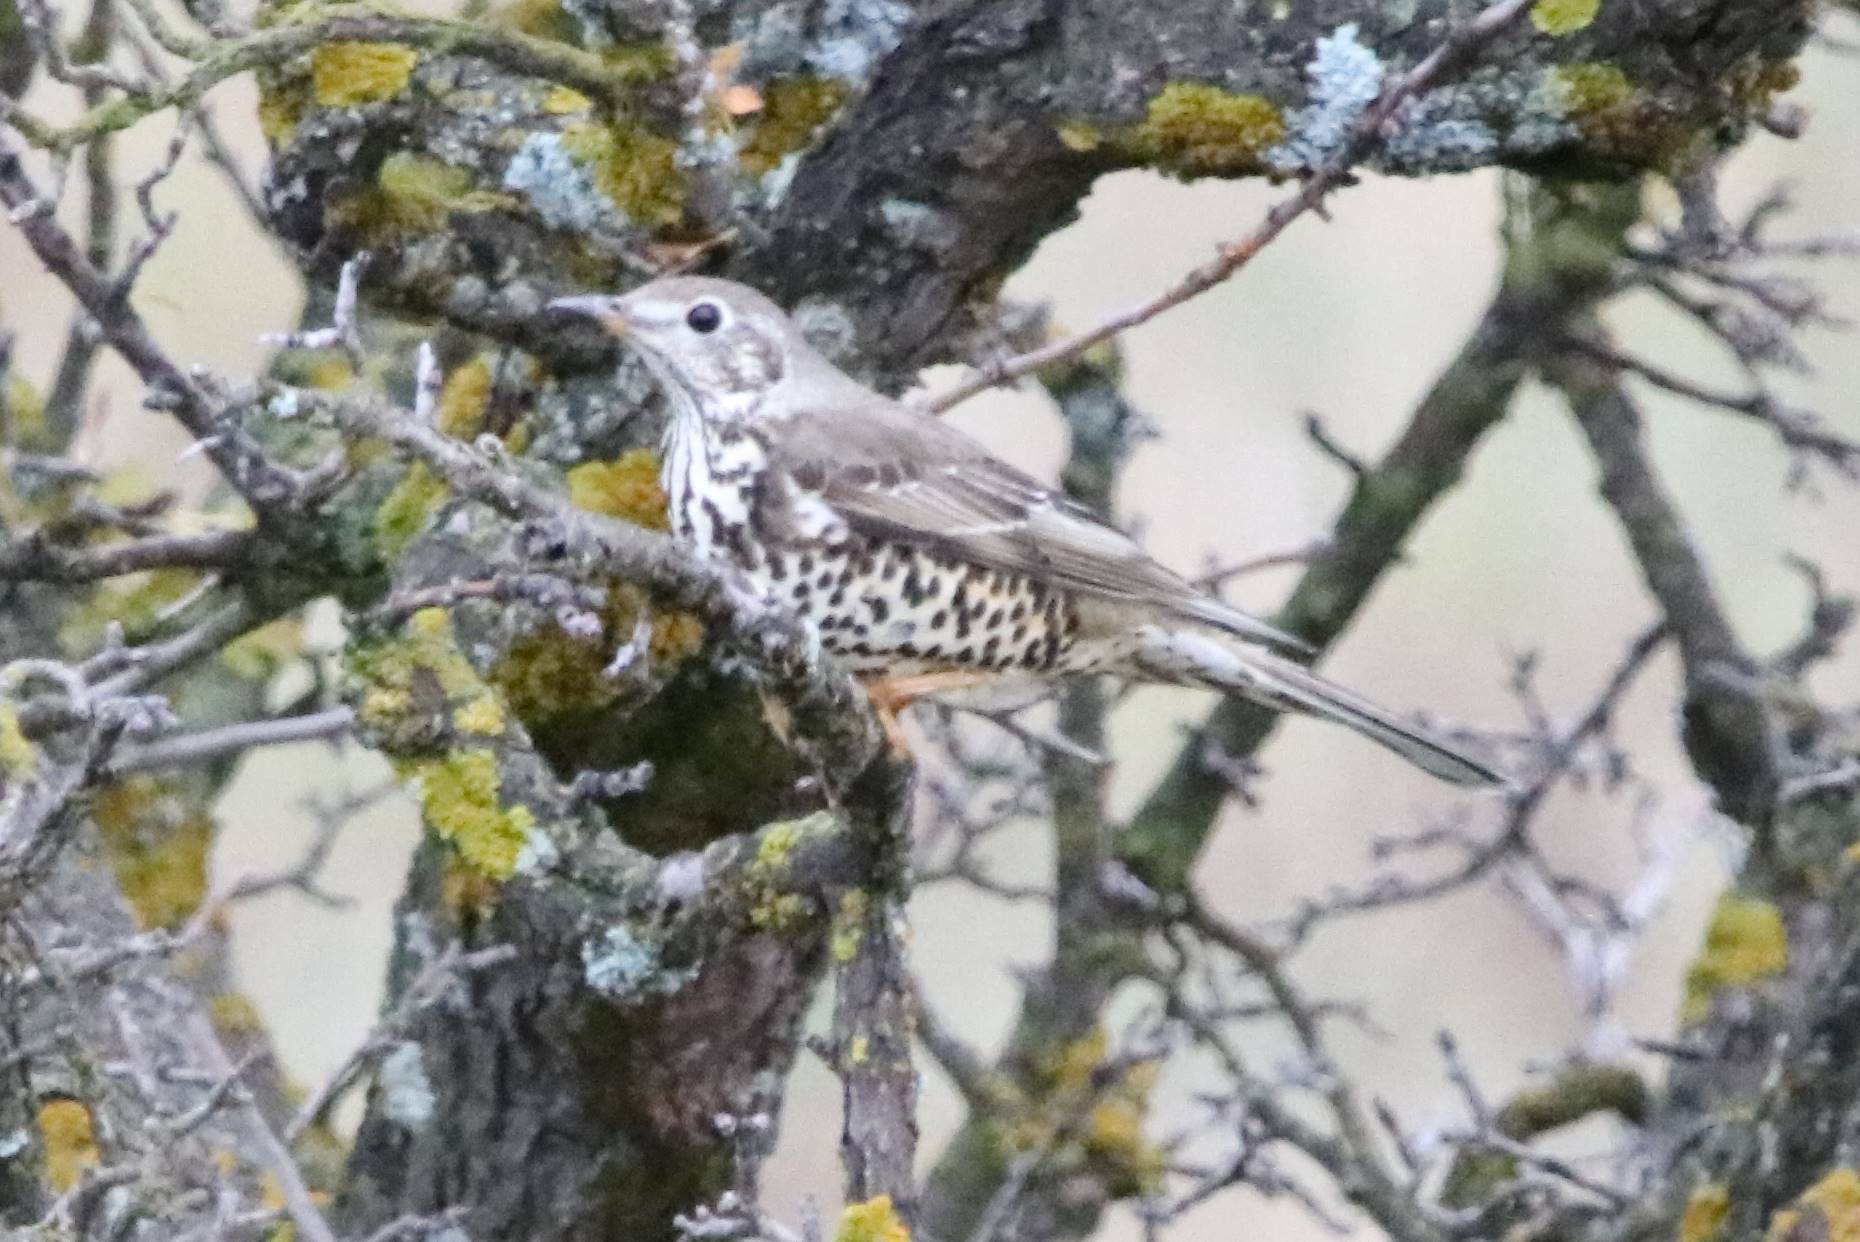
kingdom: Animalia
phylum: Chordata
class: Aves
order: Passeriformes
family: Turdidae
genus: Turdus
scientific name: Turdus viscivorus
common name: Mistle thrush
